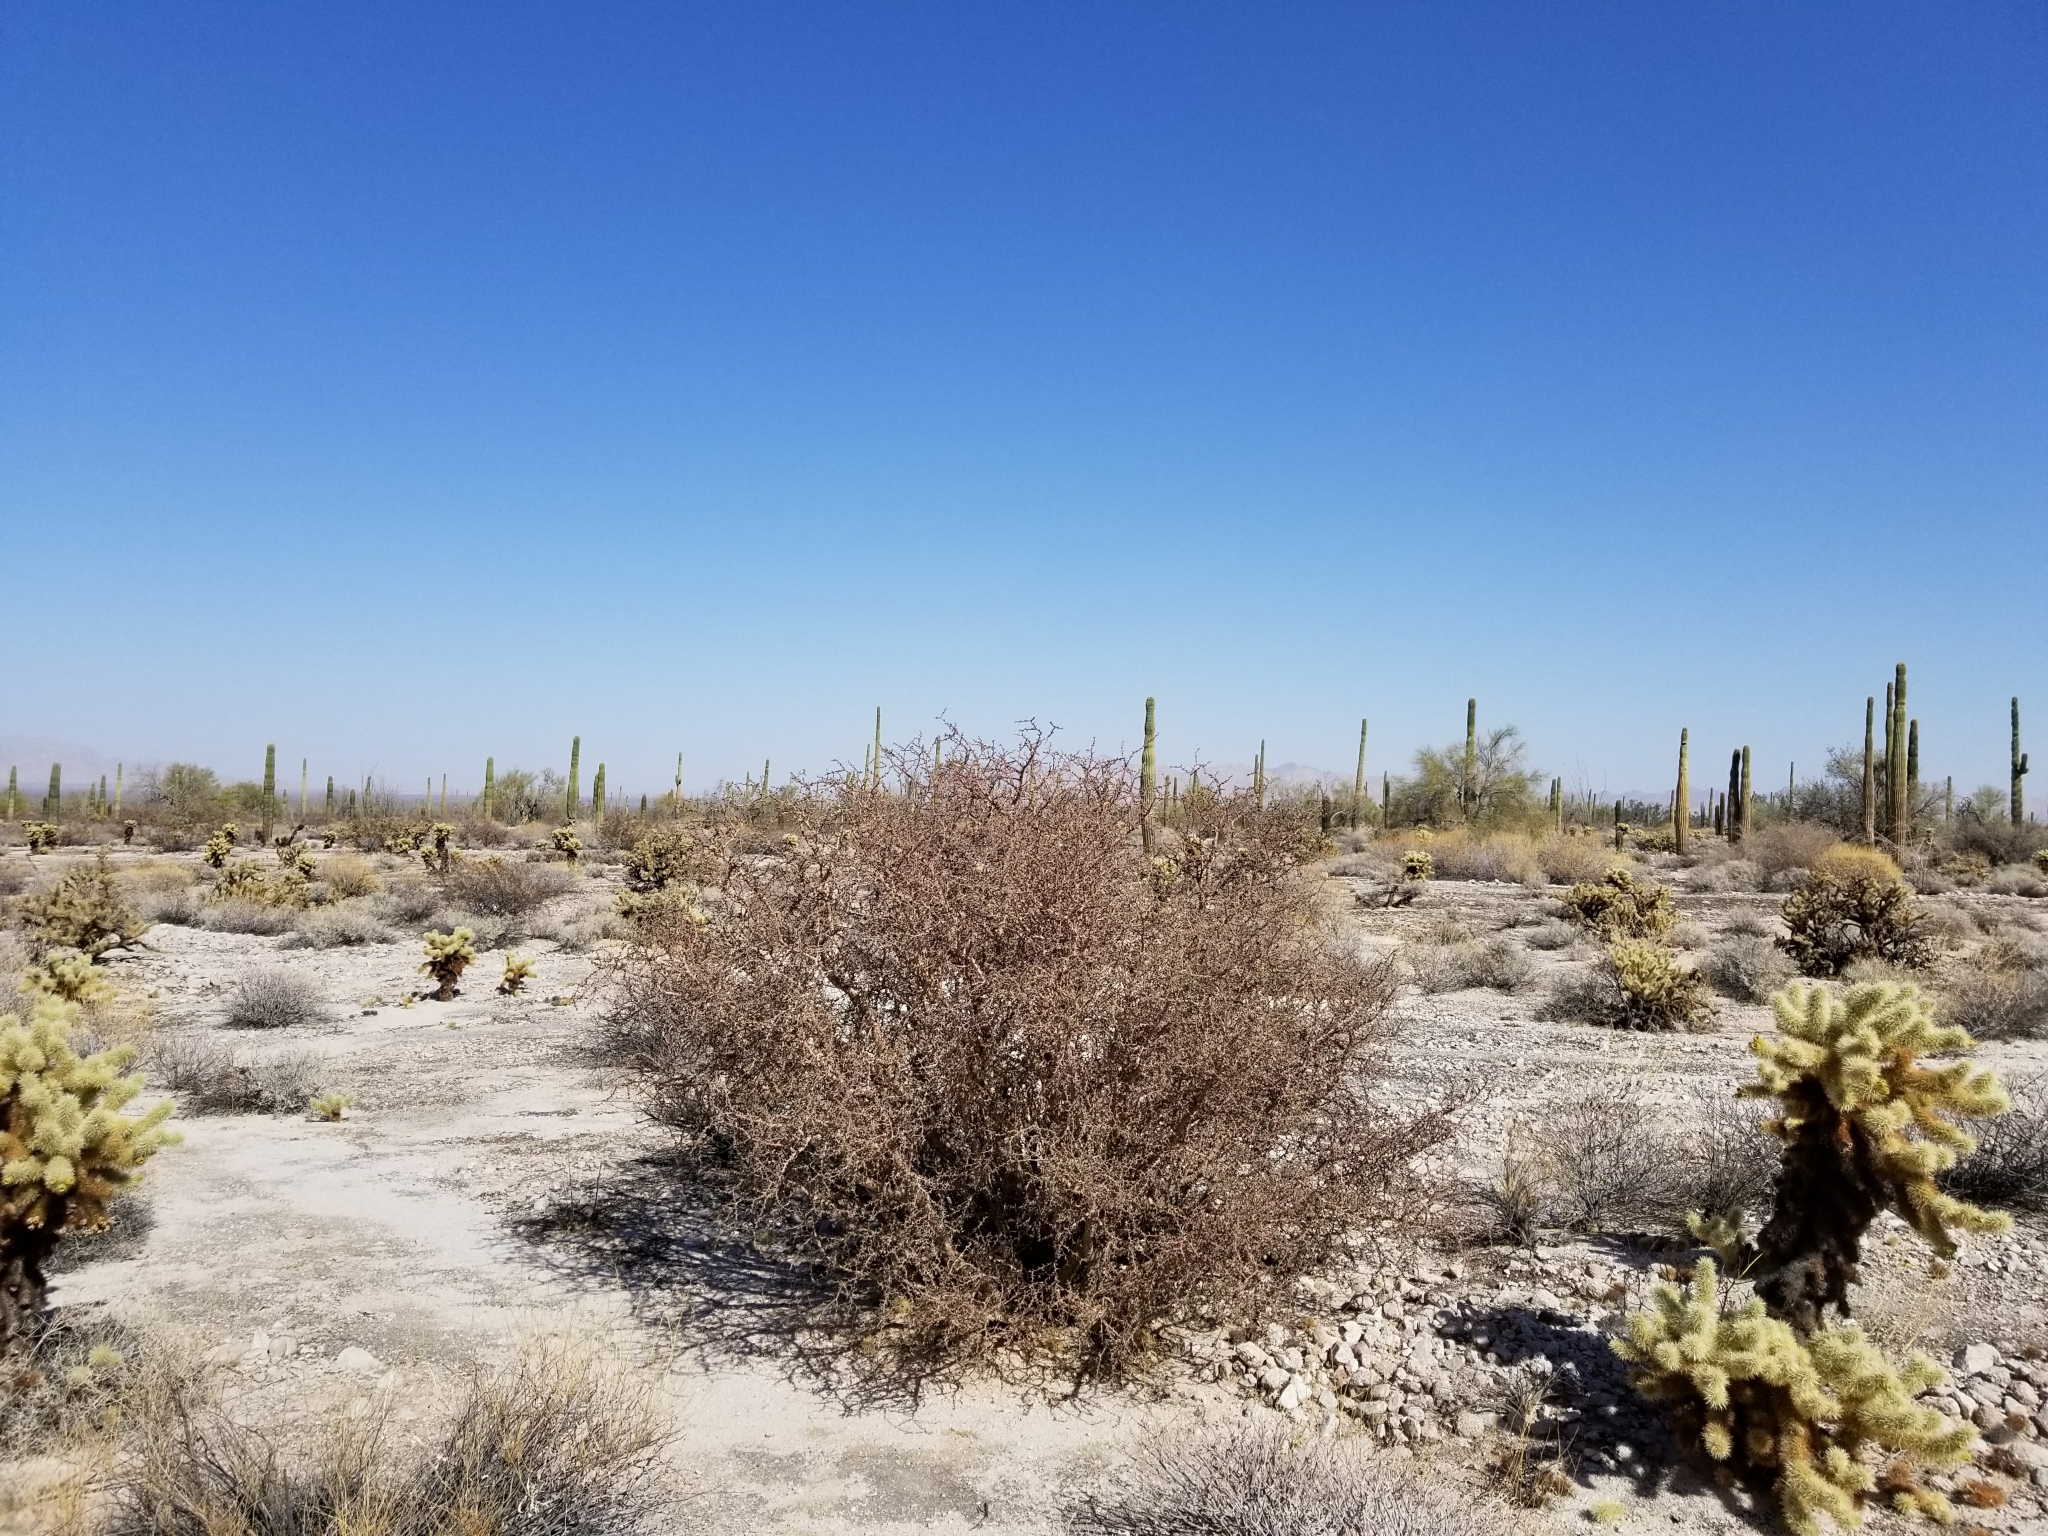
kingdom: Plantae
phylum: Tracheophyta
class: Magnoliopsida
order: Malpighiales
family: Euphorbiaceae
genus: Jatropha
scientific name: Jatropha cuneata
